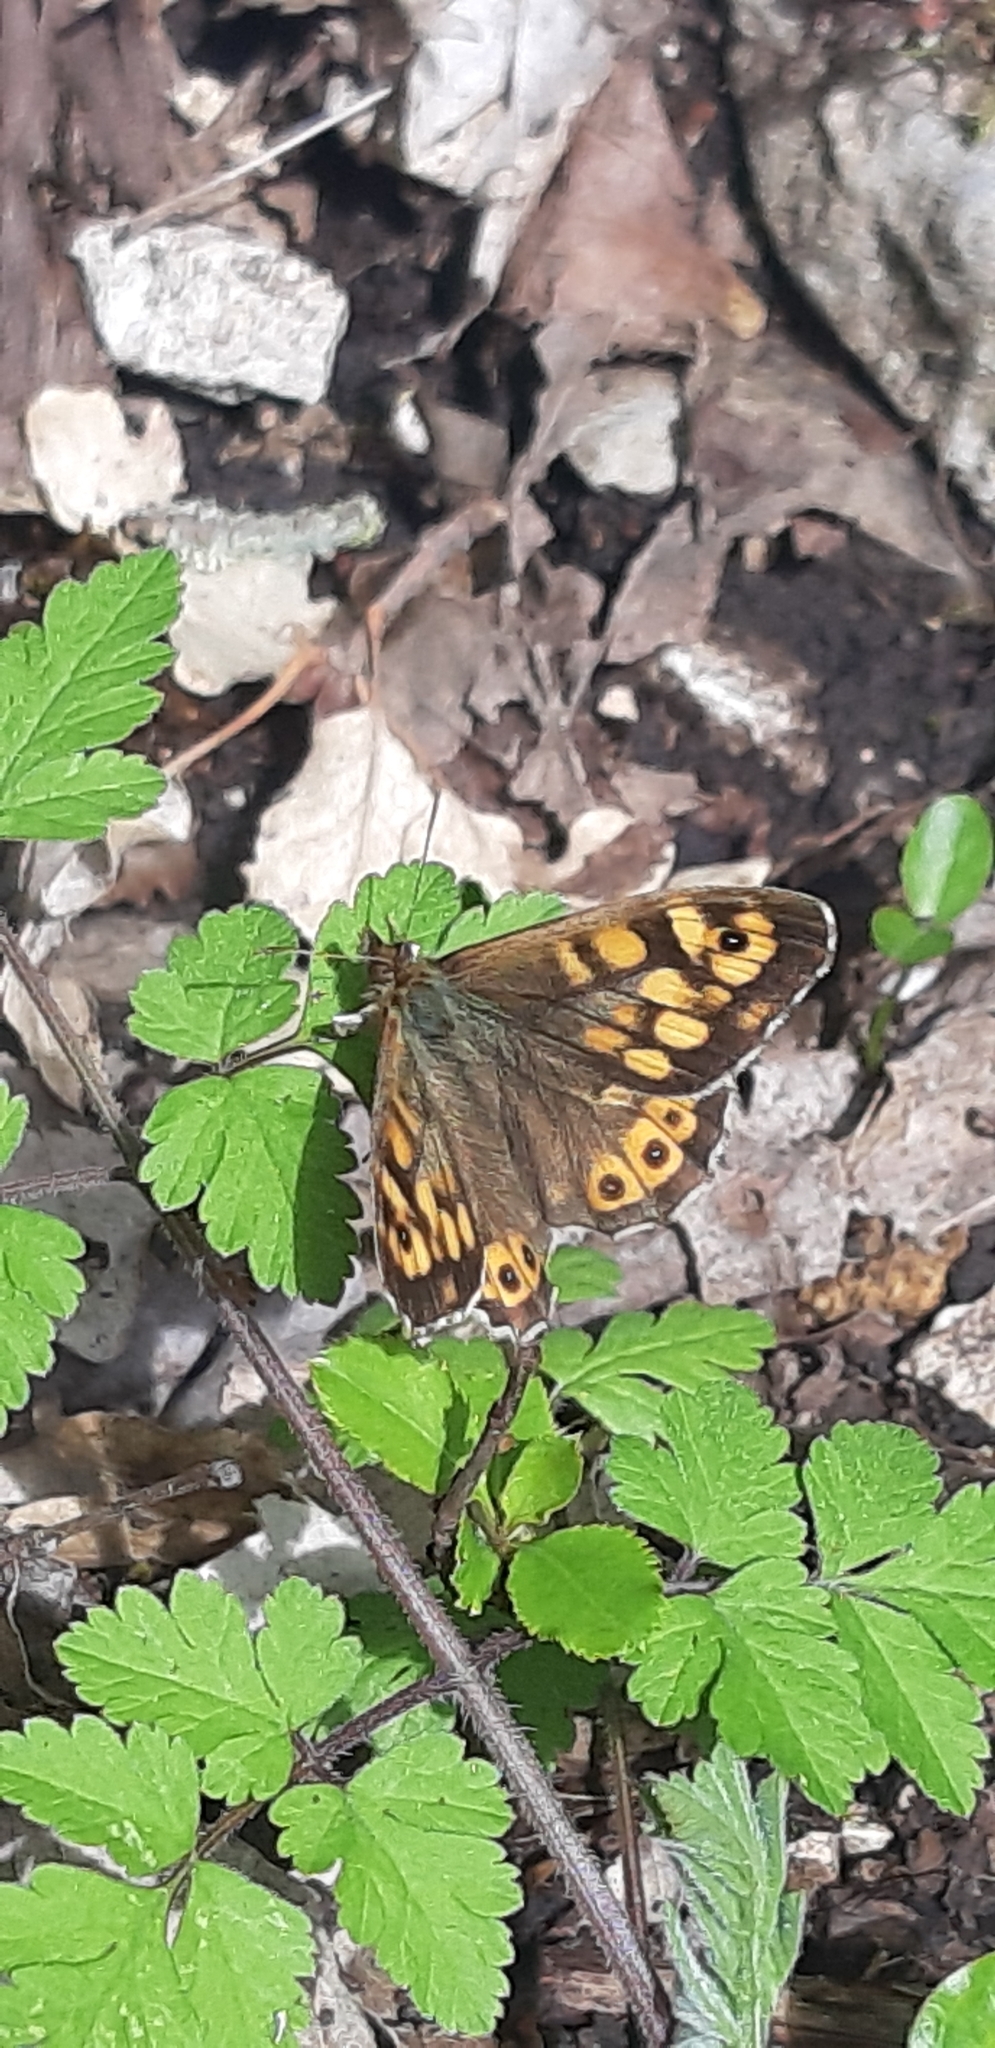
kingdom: Animalia
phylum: Arthropoda
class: Insecta
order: Lepidoptera
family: Nymphalidae
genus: Pararge
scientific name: Pararge aegeria
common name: Speckled wood
